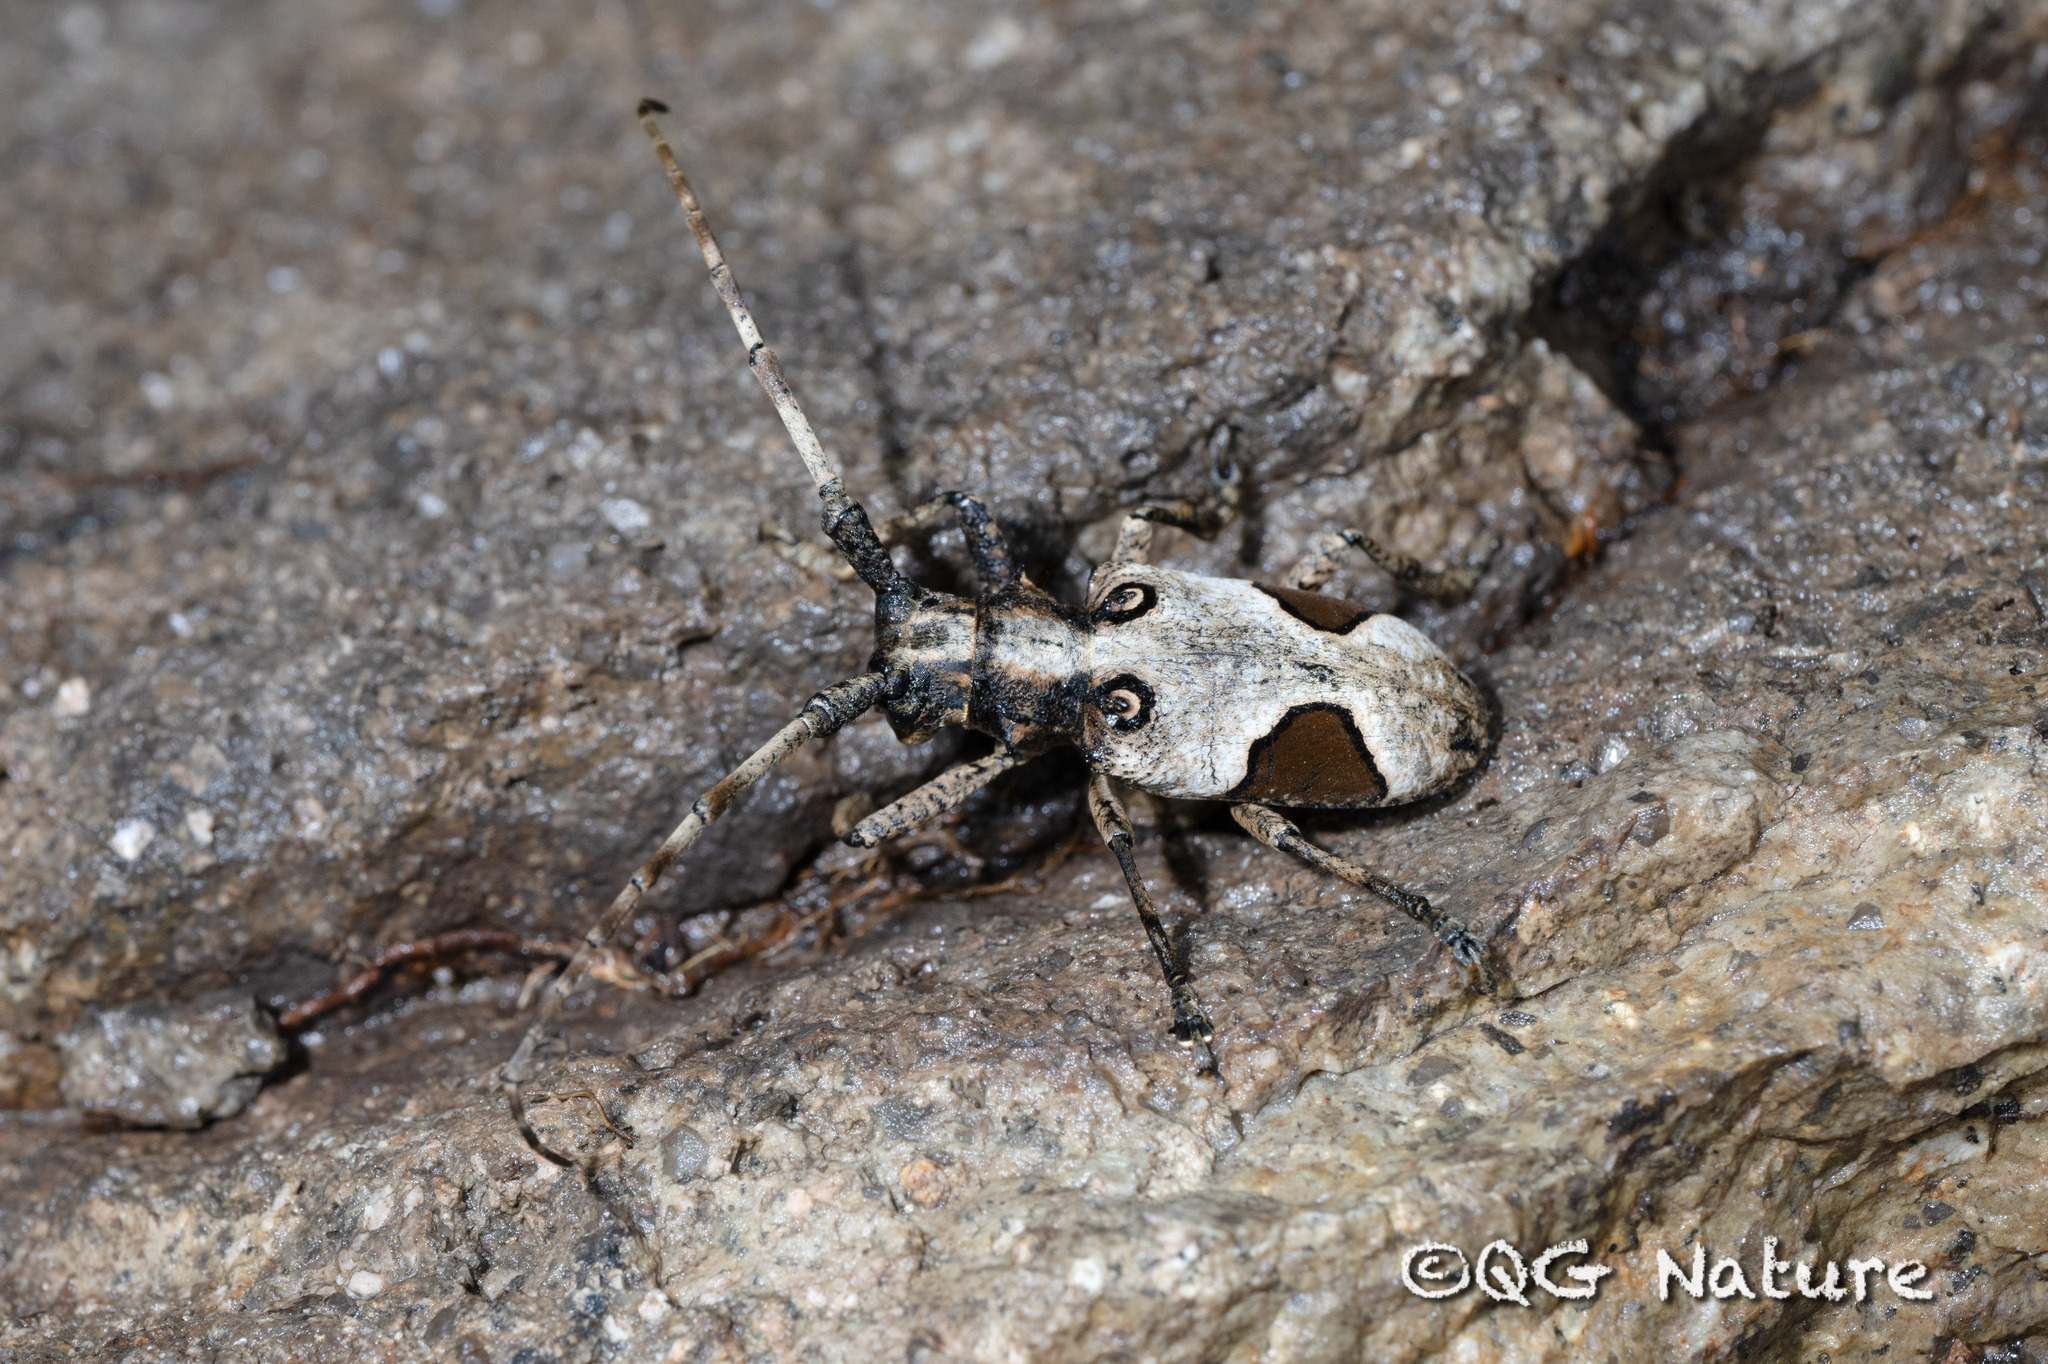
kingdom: Animalia
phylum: Arthropoda
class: Insecta
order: Coleoptera
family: Cerambycidae
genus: Paraleprodera
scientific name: Paraleprodera diophthalma
